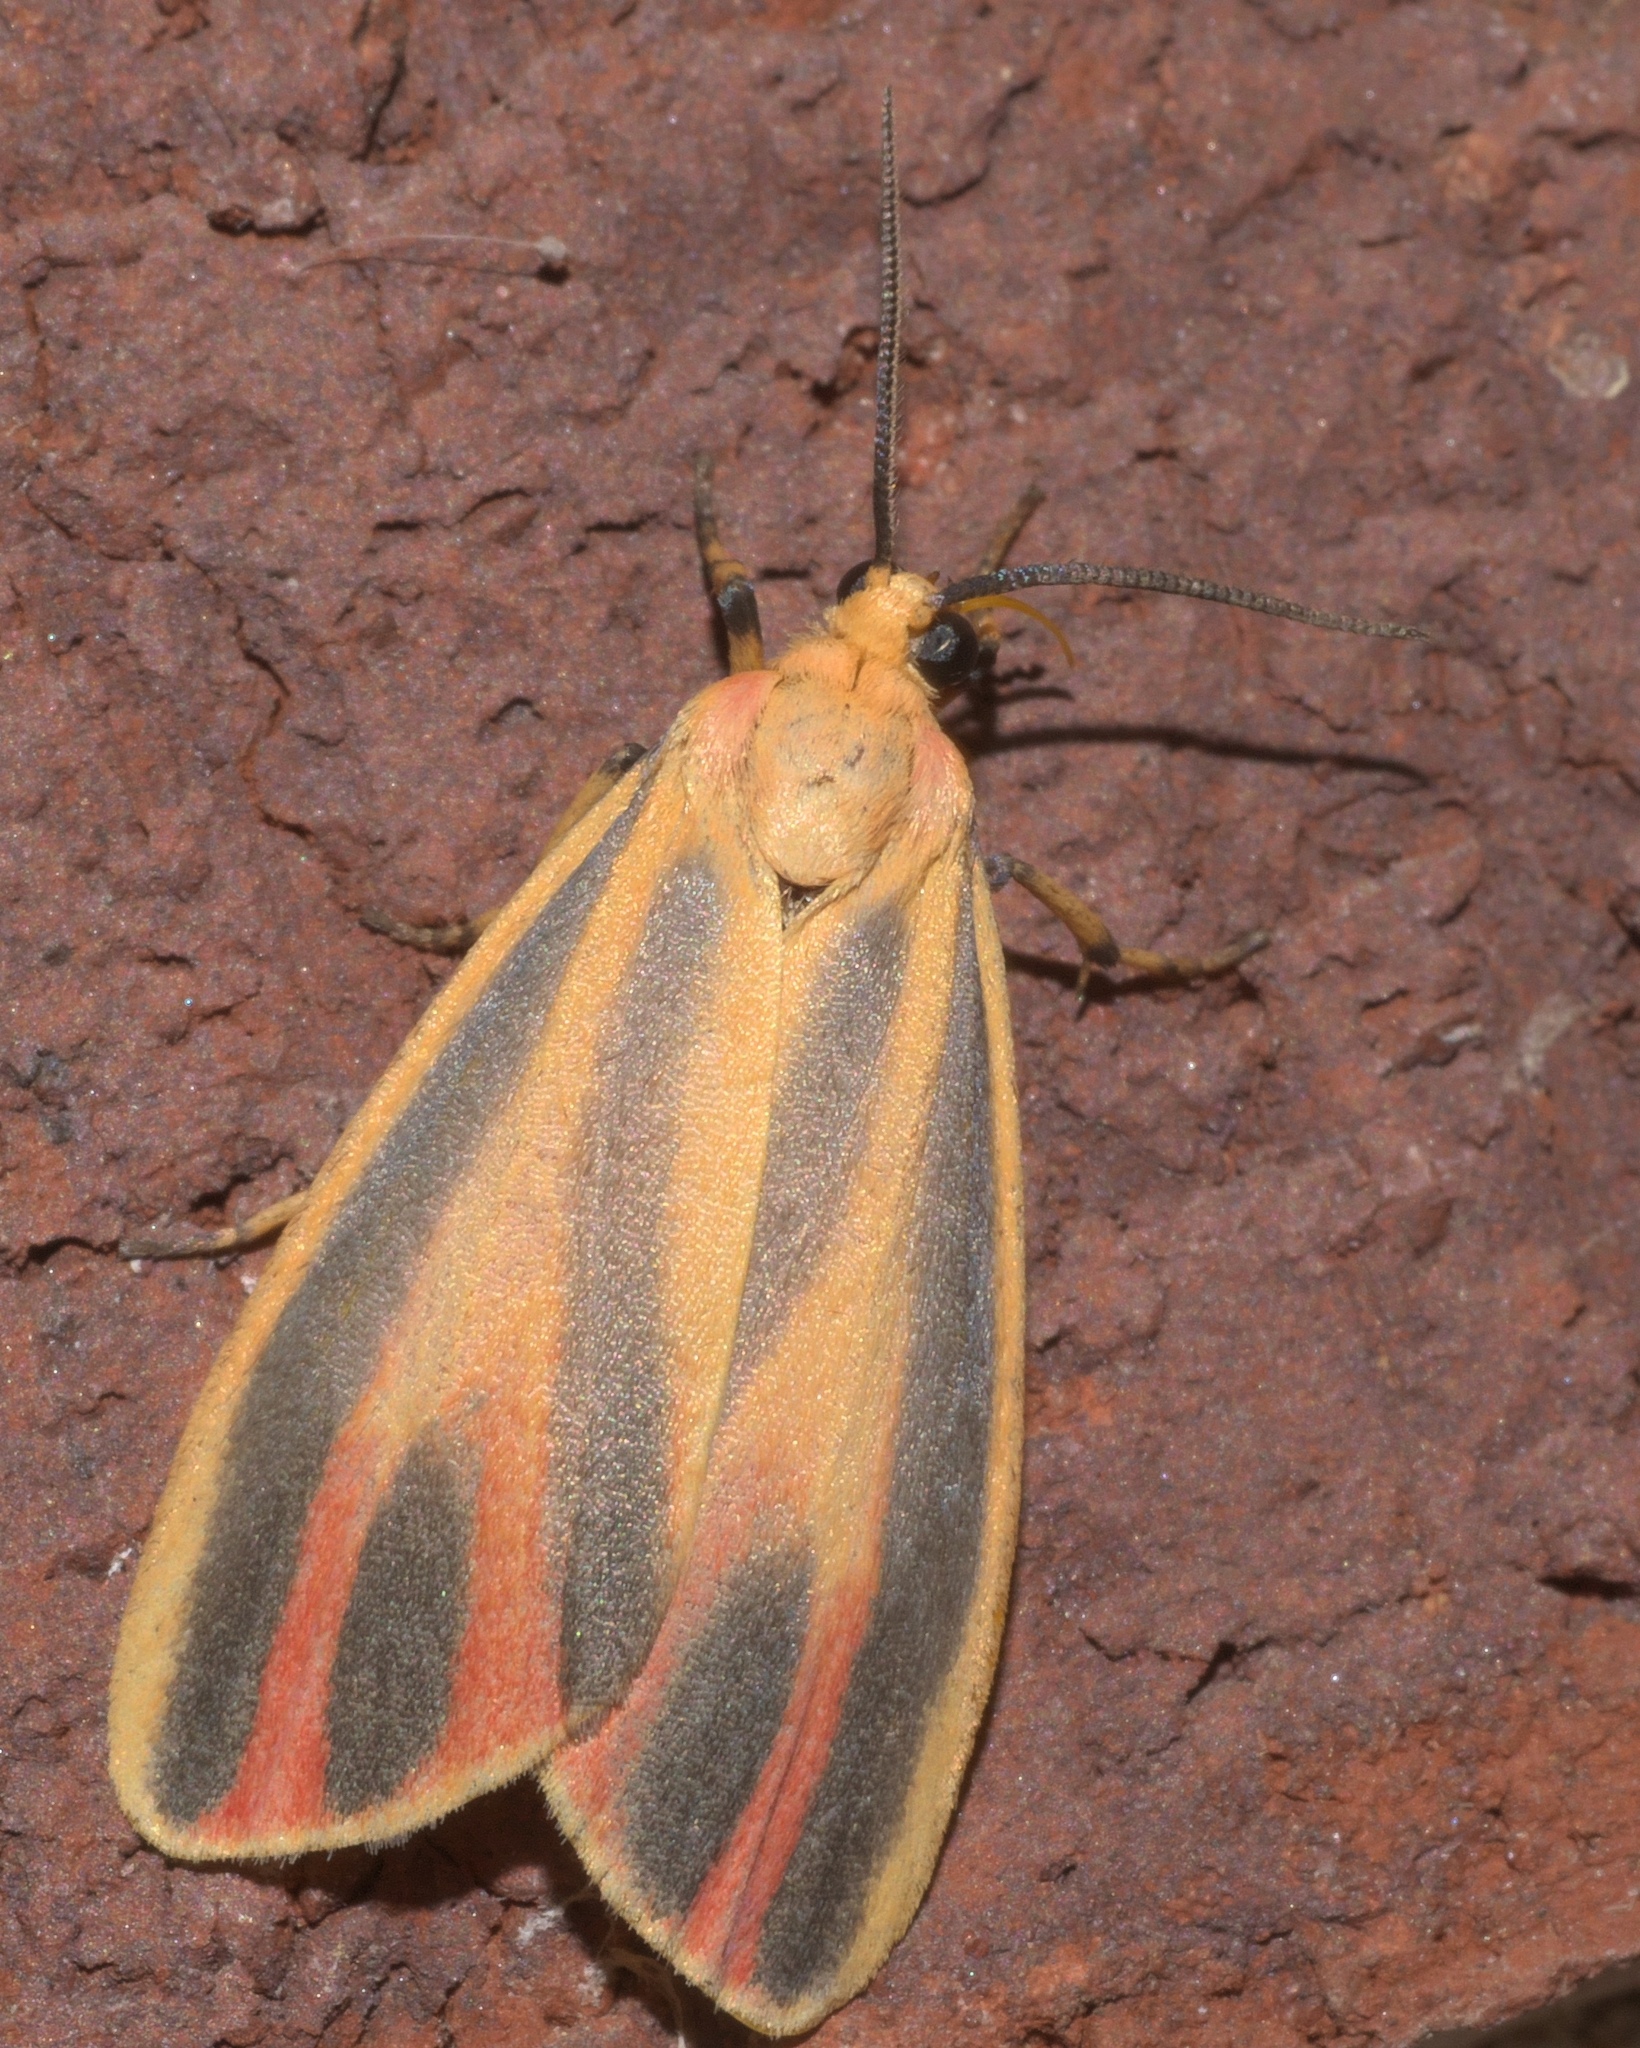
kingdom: Animalia
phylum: Arthropoda
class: Insecta
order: Lepidoptera
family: Erebidae
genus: Hypoprepia
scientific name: Hypoprepia fucosa
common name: Painted lichen moth
